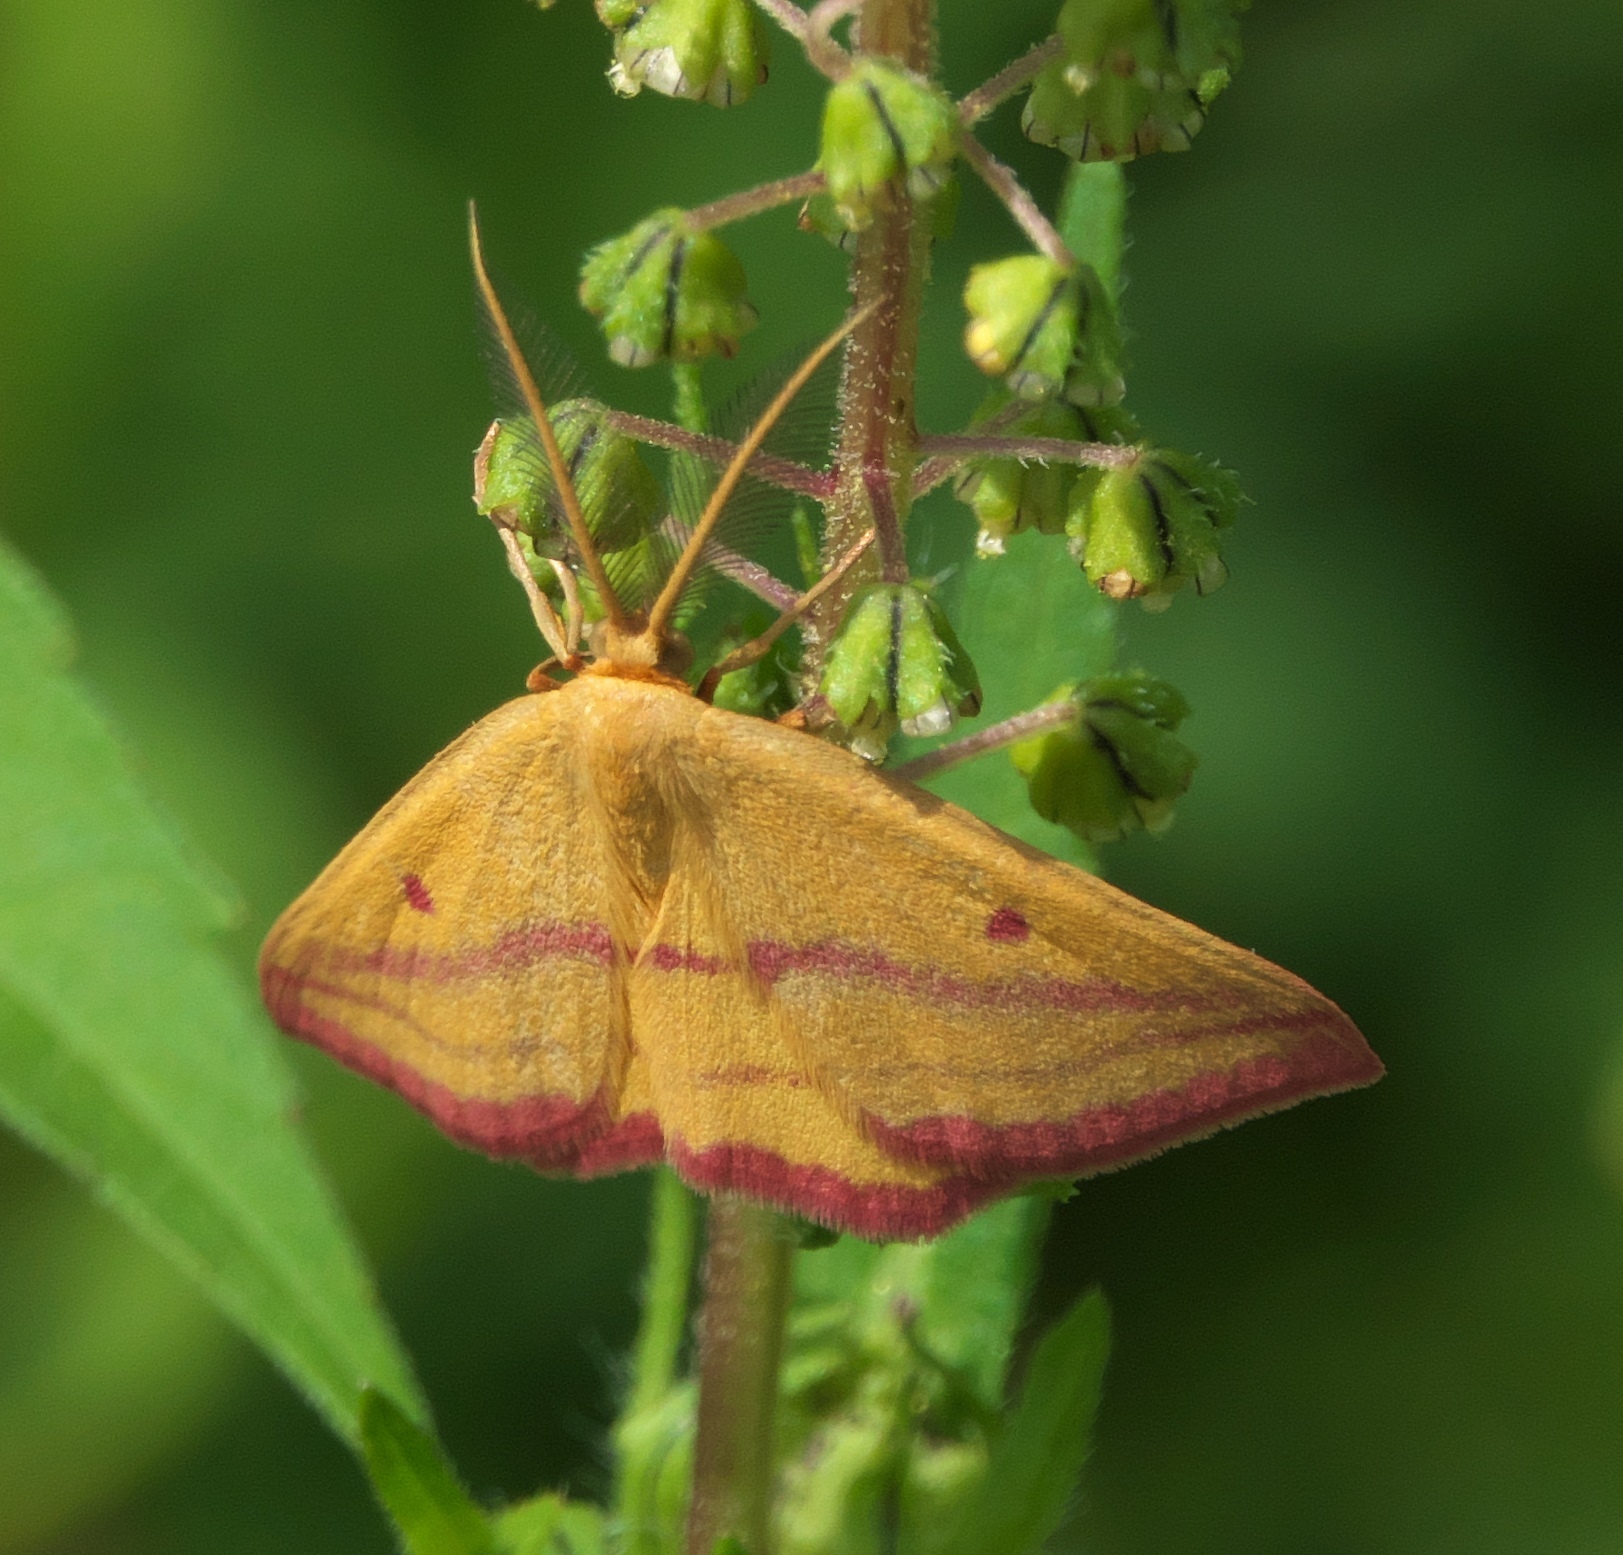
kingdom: Animalia
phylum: Arthropoda
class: Insecta
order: Lepidoptera
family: Geometridae
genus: Haematopis
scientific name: Haematopis grataria
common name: Chickweed geometer
